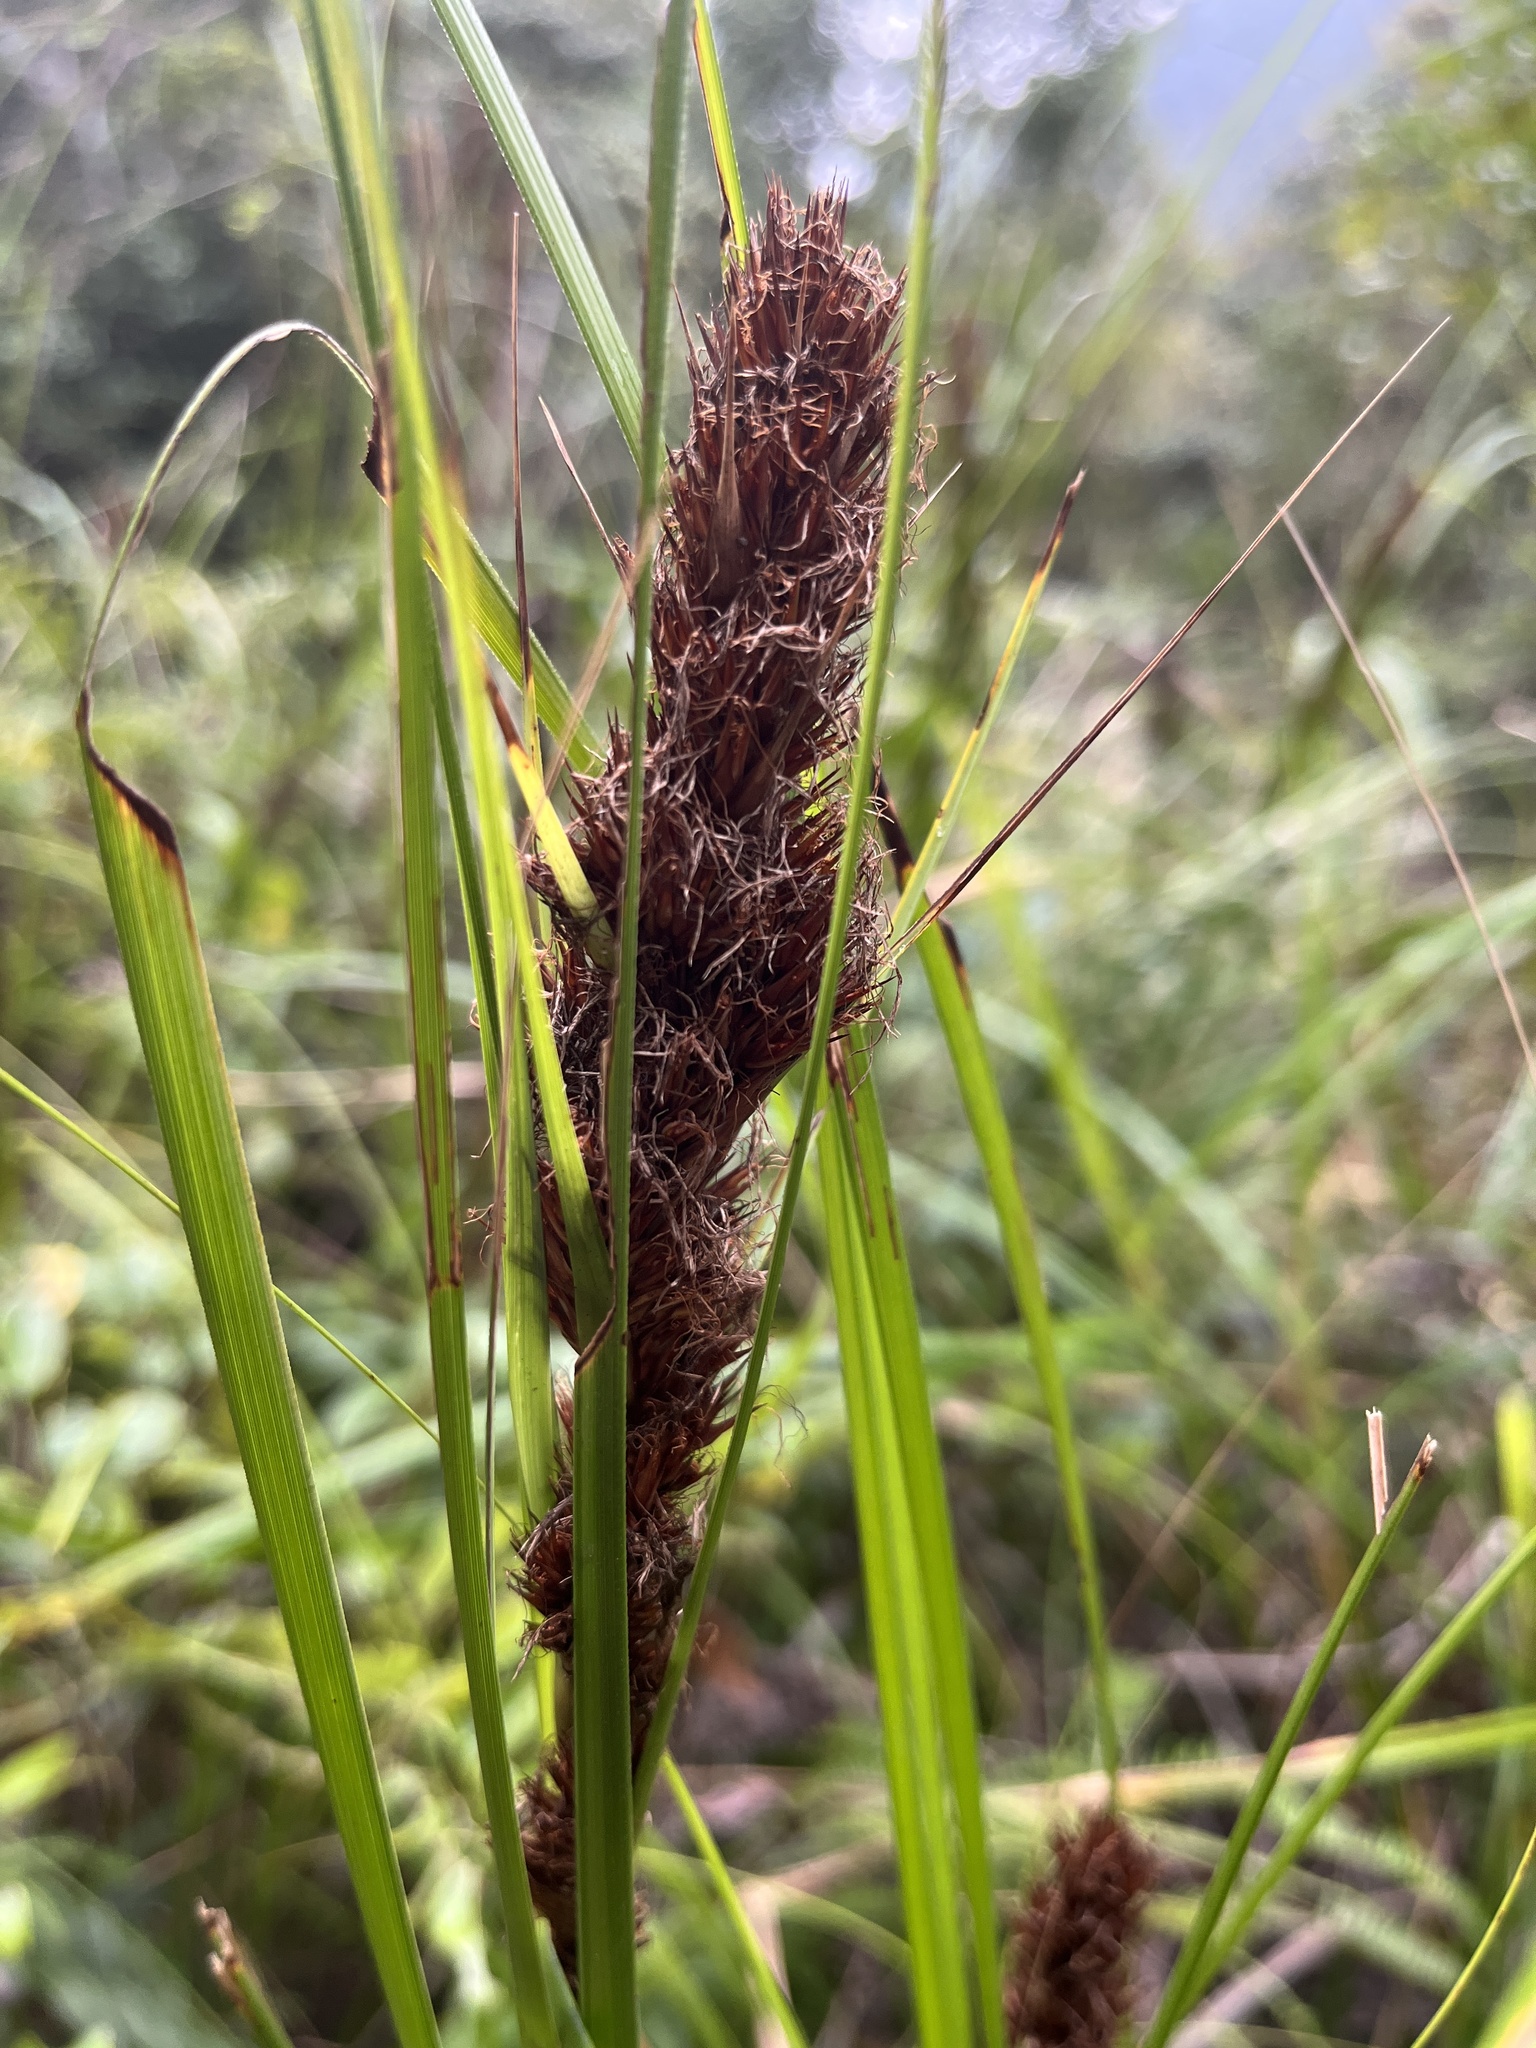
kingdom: Plantae
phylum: Tracheophyta
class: Liliopsida
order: Poales
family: Cyperaceae
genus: Gahnia
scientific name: Gahnia tristis
